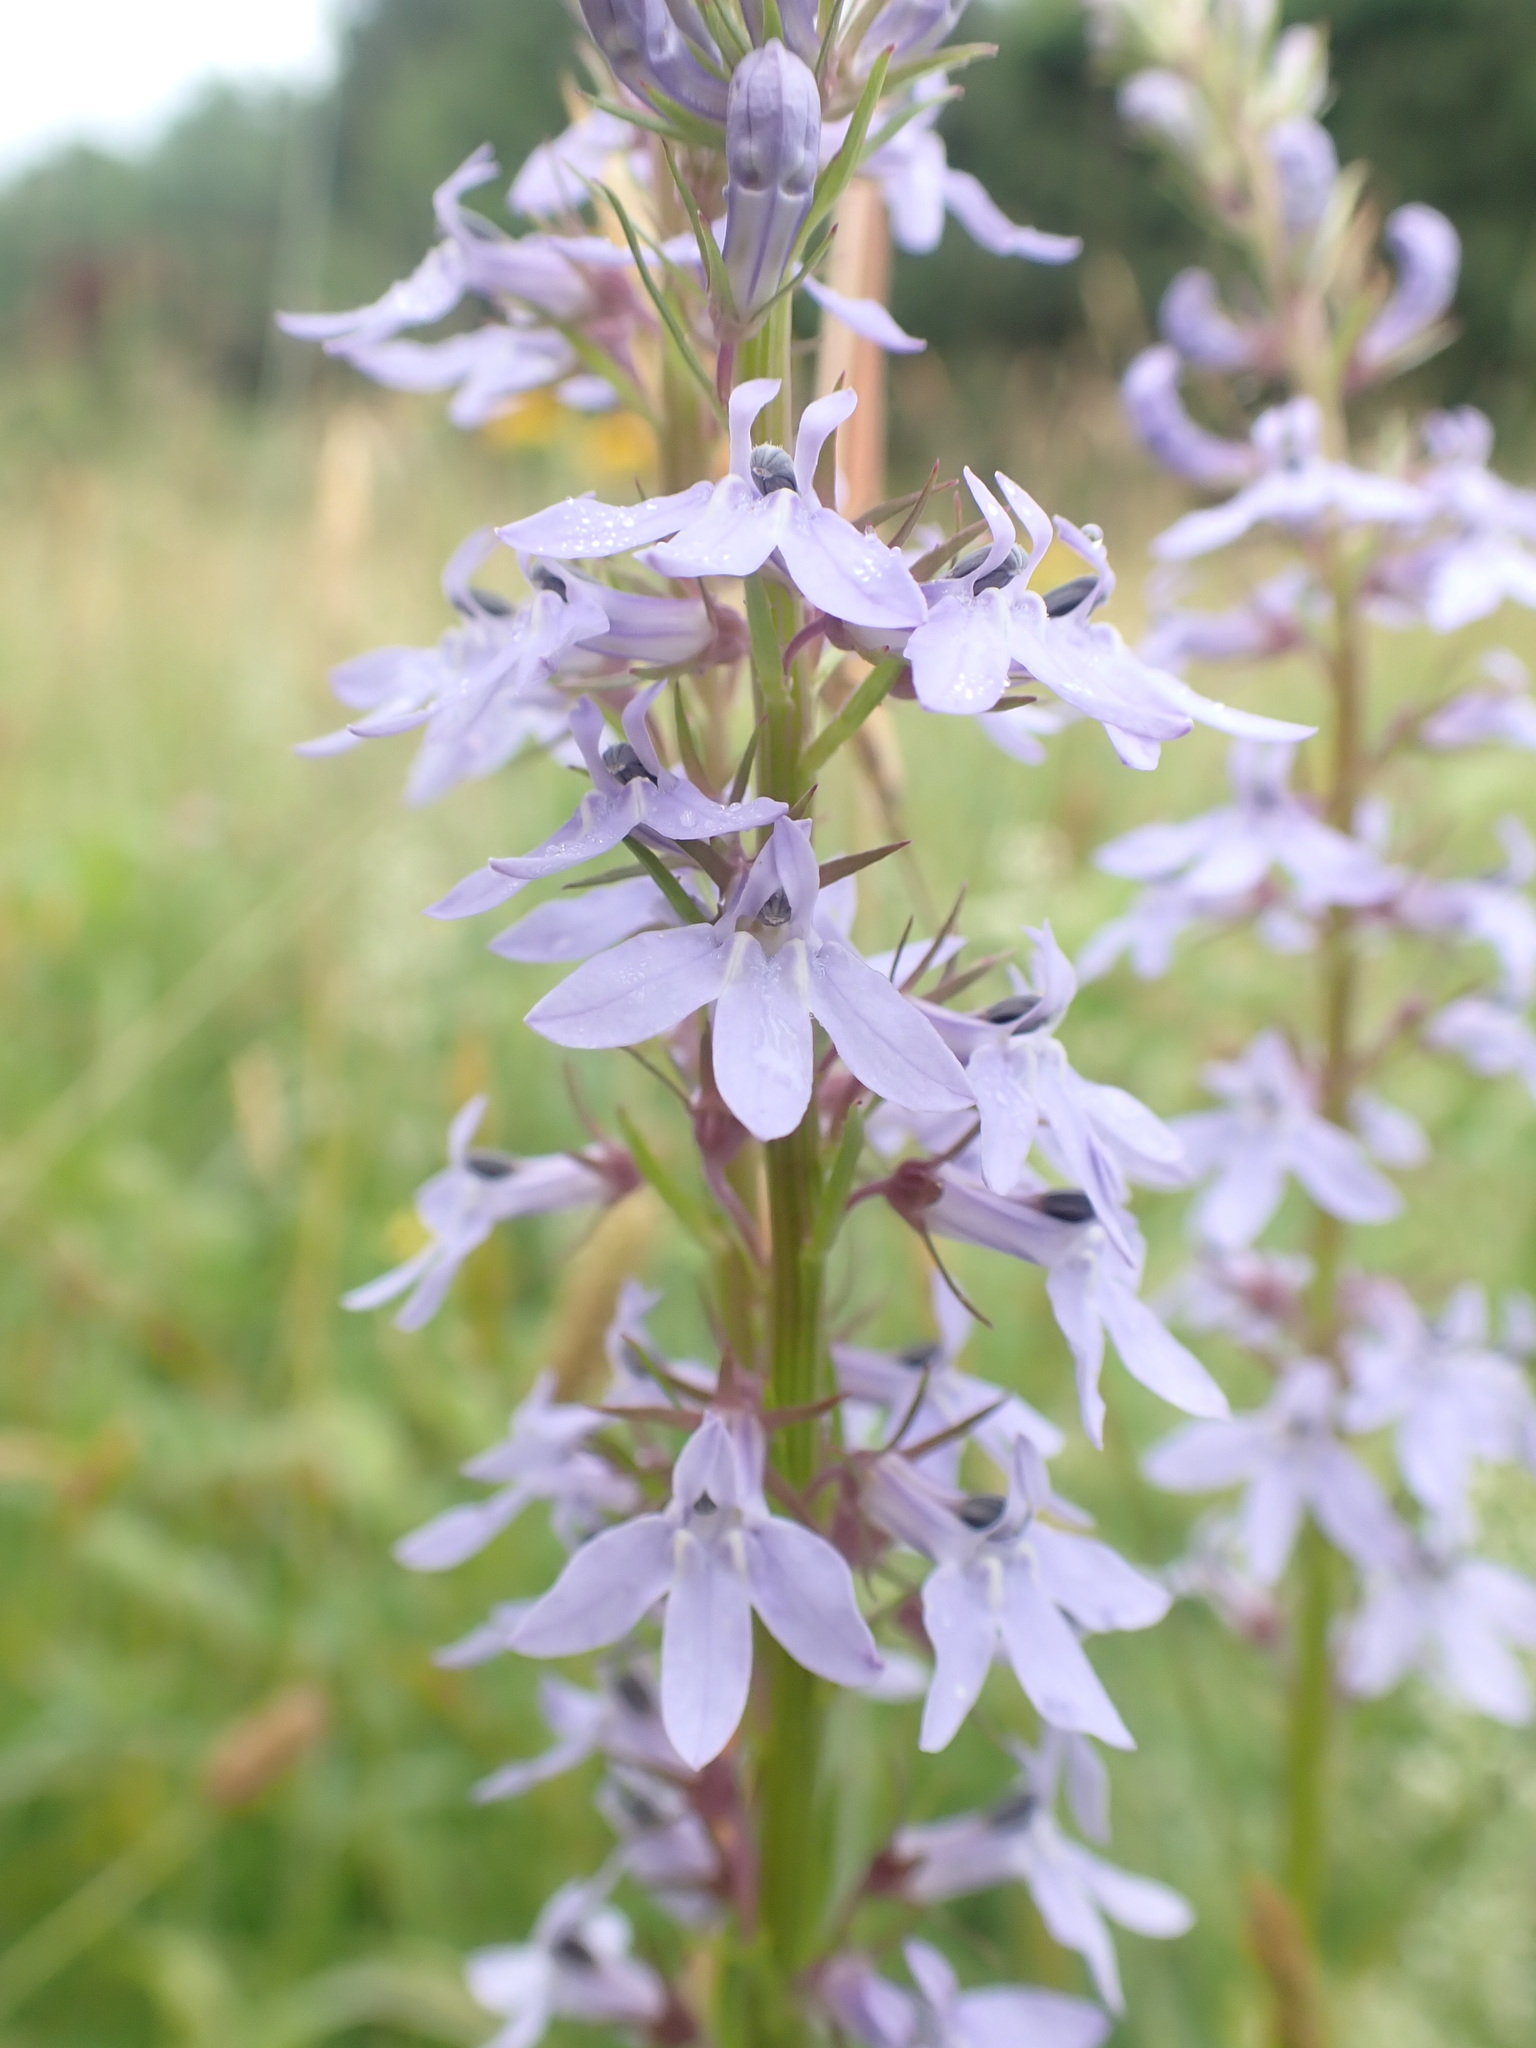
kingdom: Plantae
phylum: Tracheophyta
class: Magnoliopsida
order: Asterales
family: Campanulaceae
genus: Lobelia
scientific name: Lobelia spicata
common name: Pale-spike lobelia
